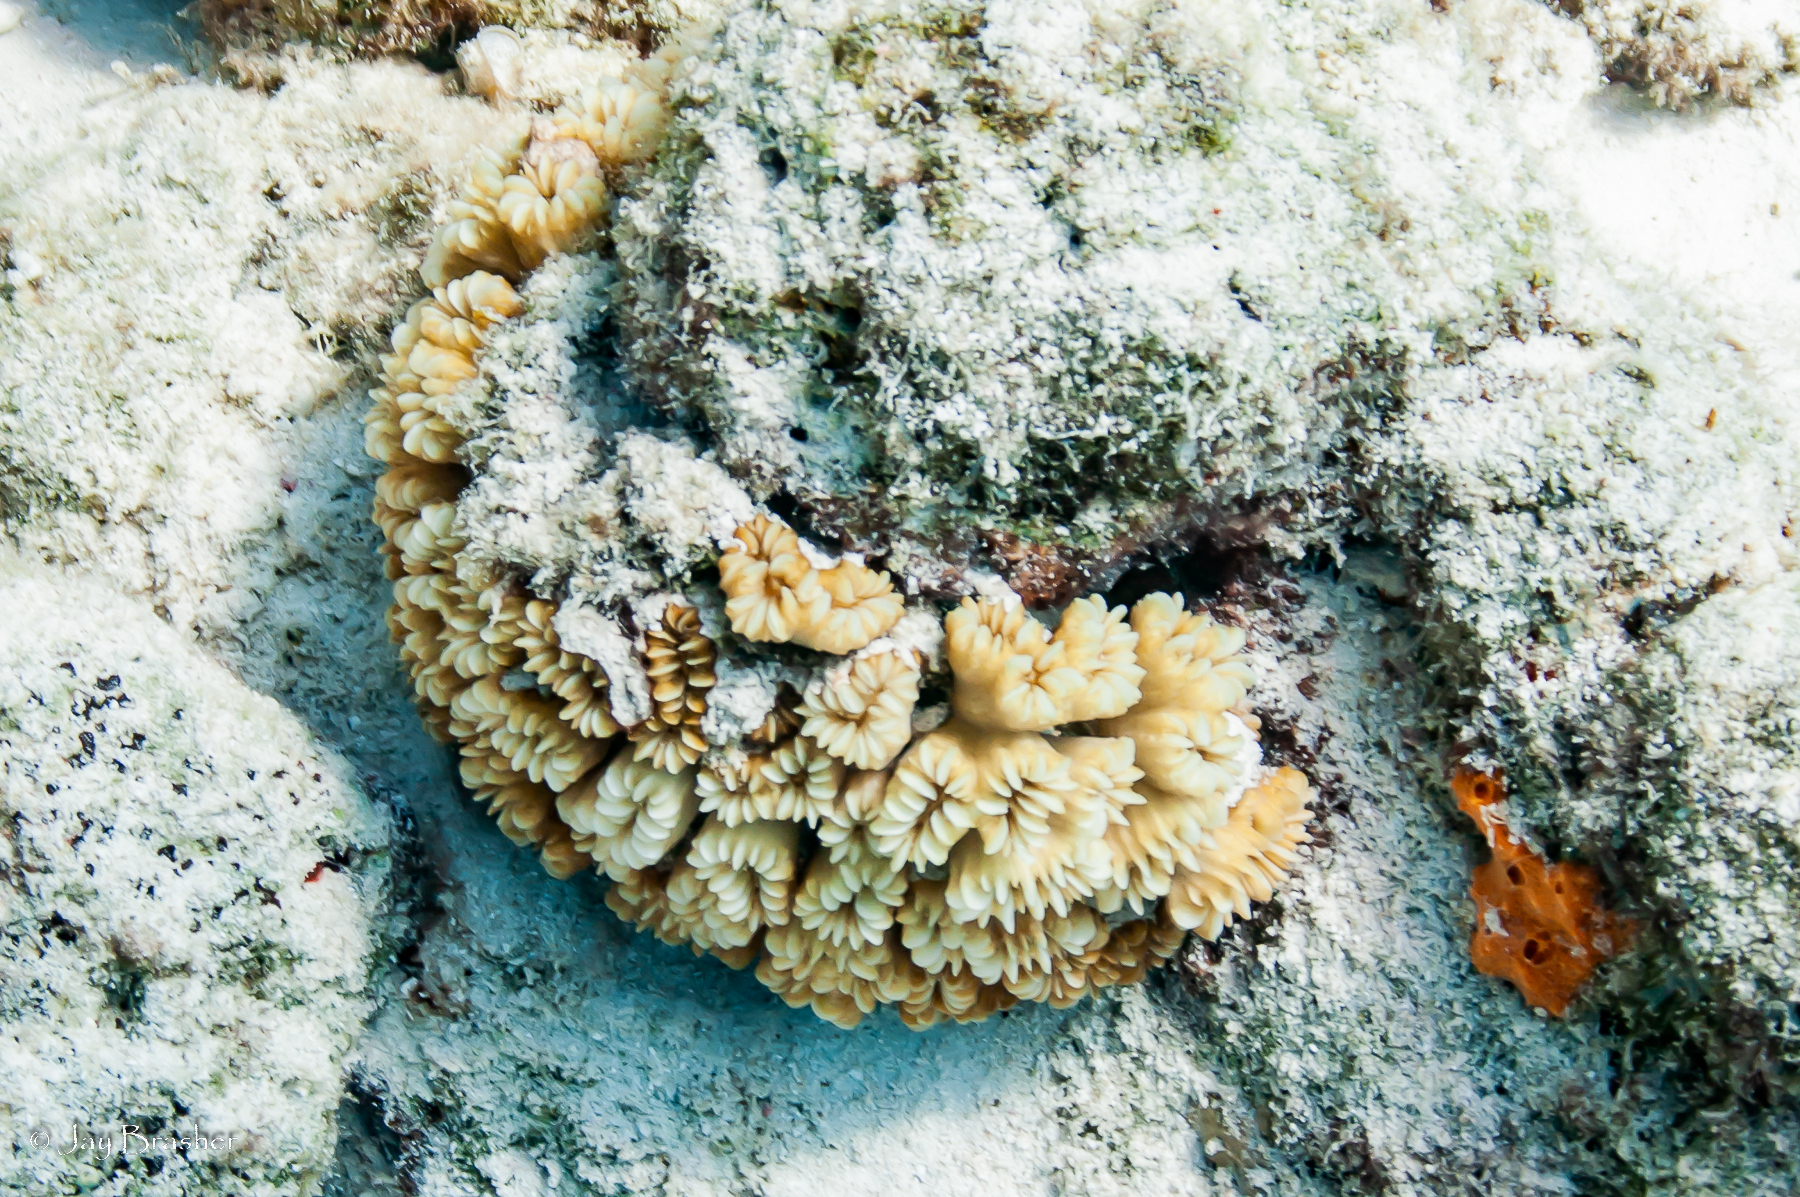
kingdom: Animalia
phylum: Cnidaria
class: Anthozoa
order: Scleractinia
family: Meandrinidae
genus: Eusmilia
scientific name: Eusmilia fastigiata
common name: Smooth flower coral
